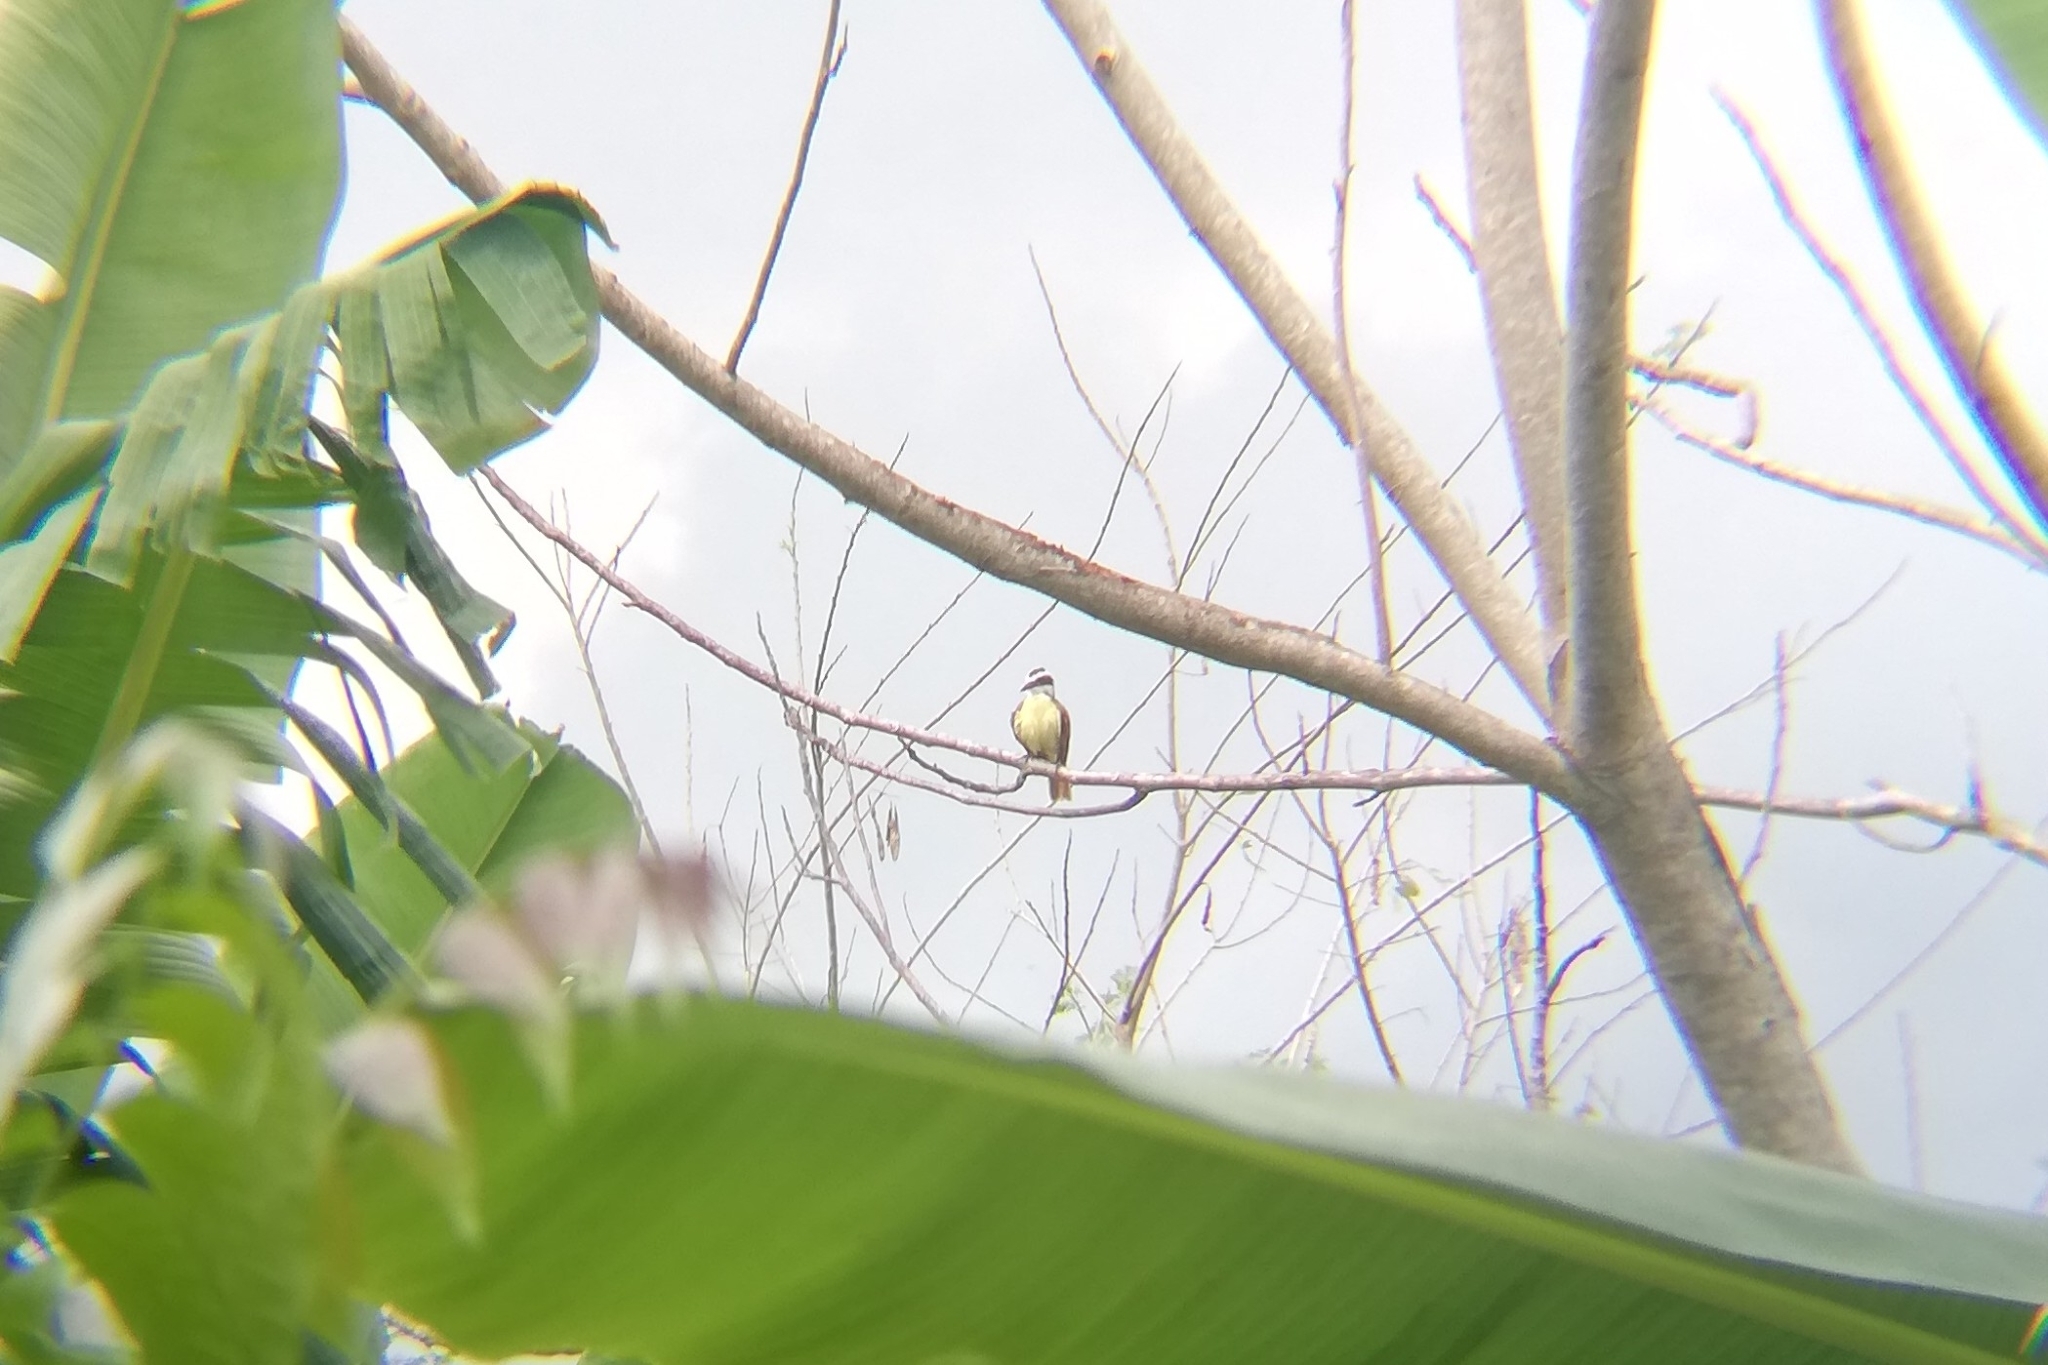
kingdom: Animalia
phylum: Chordata
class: Aves
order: Passeriformes
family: Tyrannidae
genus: Pitangus
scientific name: Pitangus sulphuratus
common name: Great kiskadee
